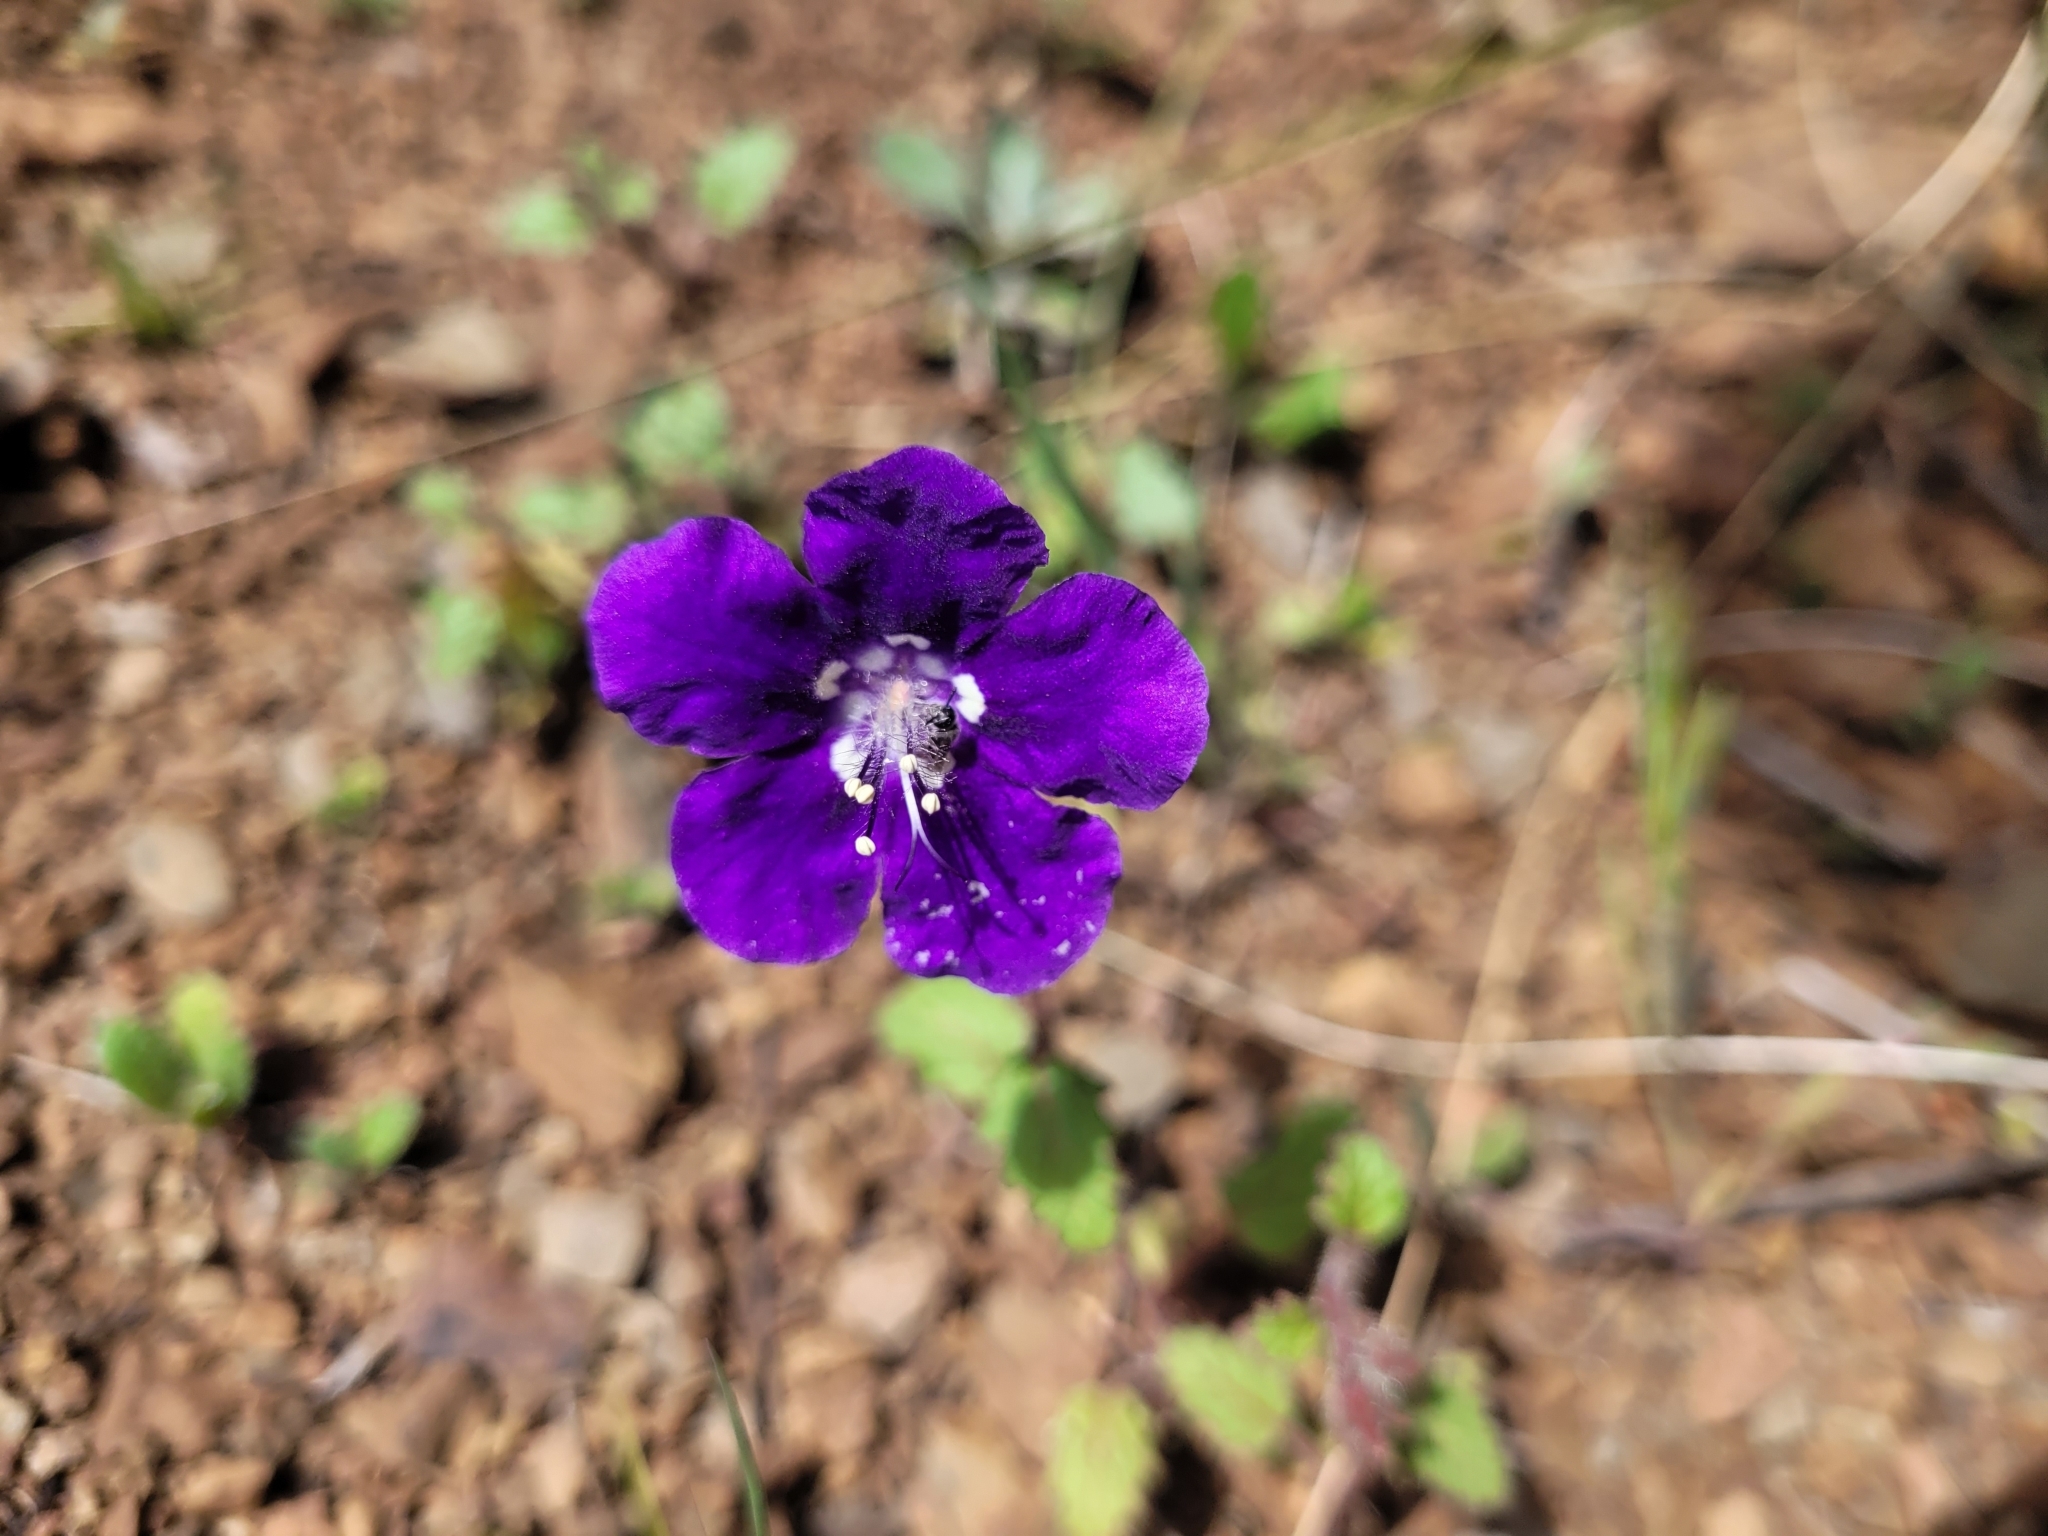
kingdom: Plantae
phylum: Tracheophyta
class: Magnoliopsida
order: Boraginales
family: Hydrophyllaceae
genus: Phacelia
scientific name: Phacelia parryi
